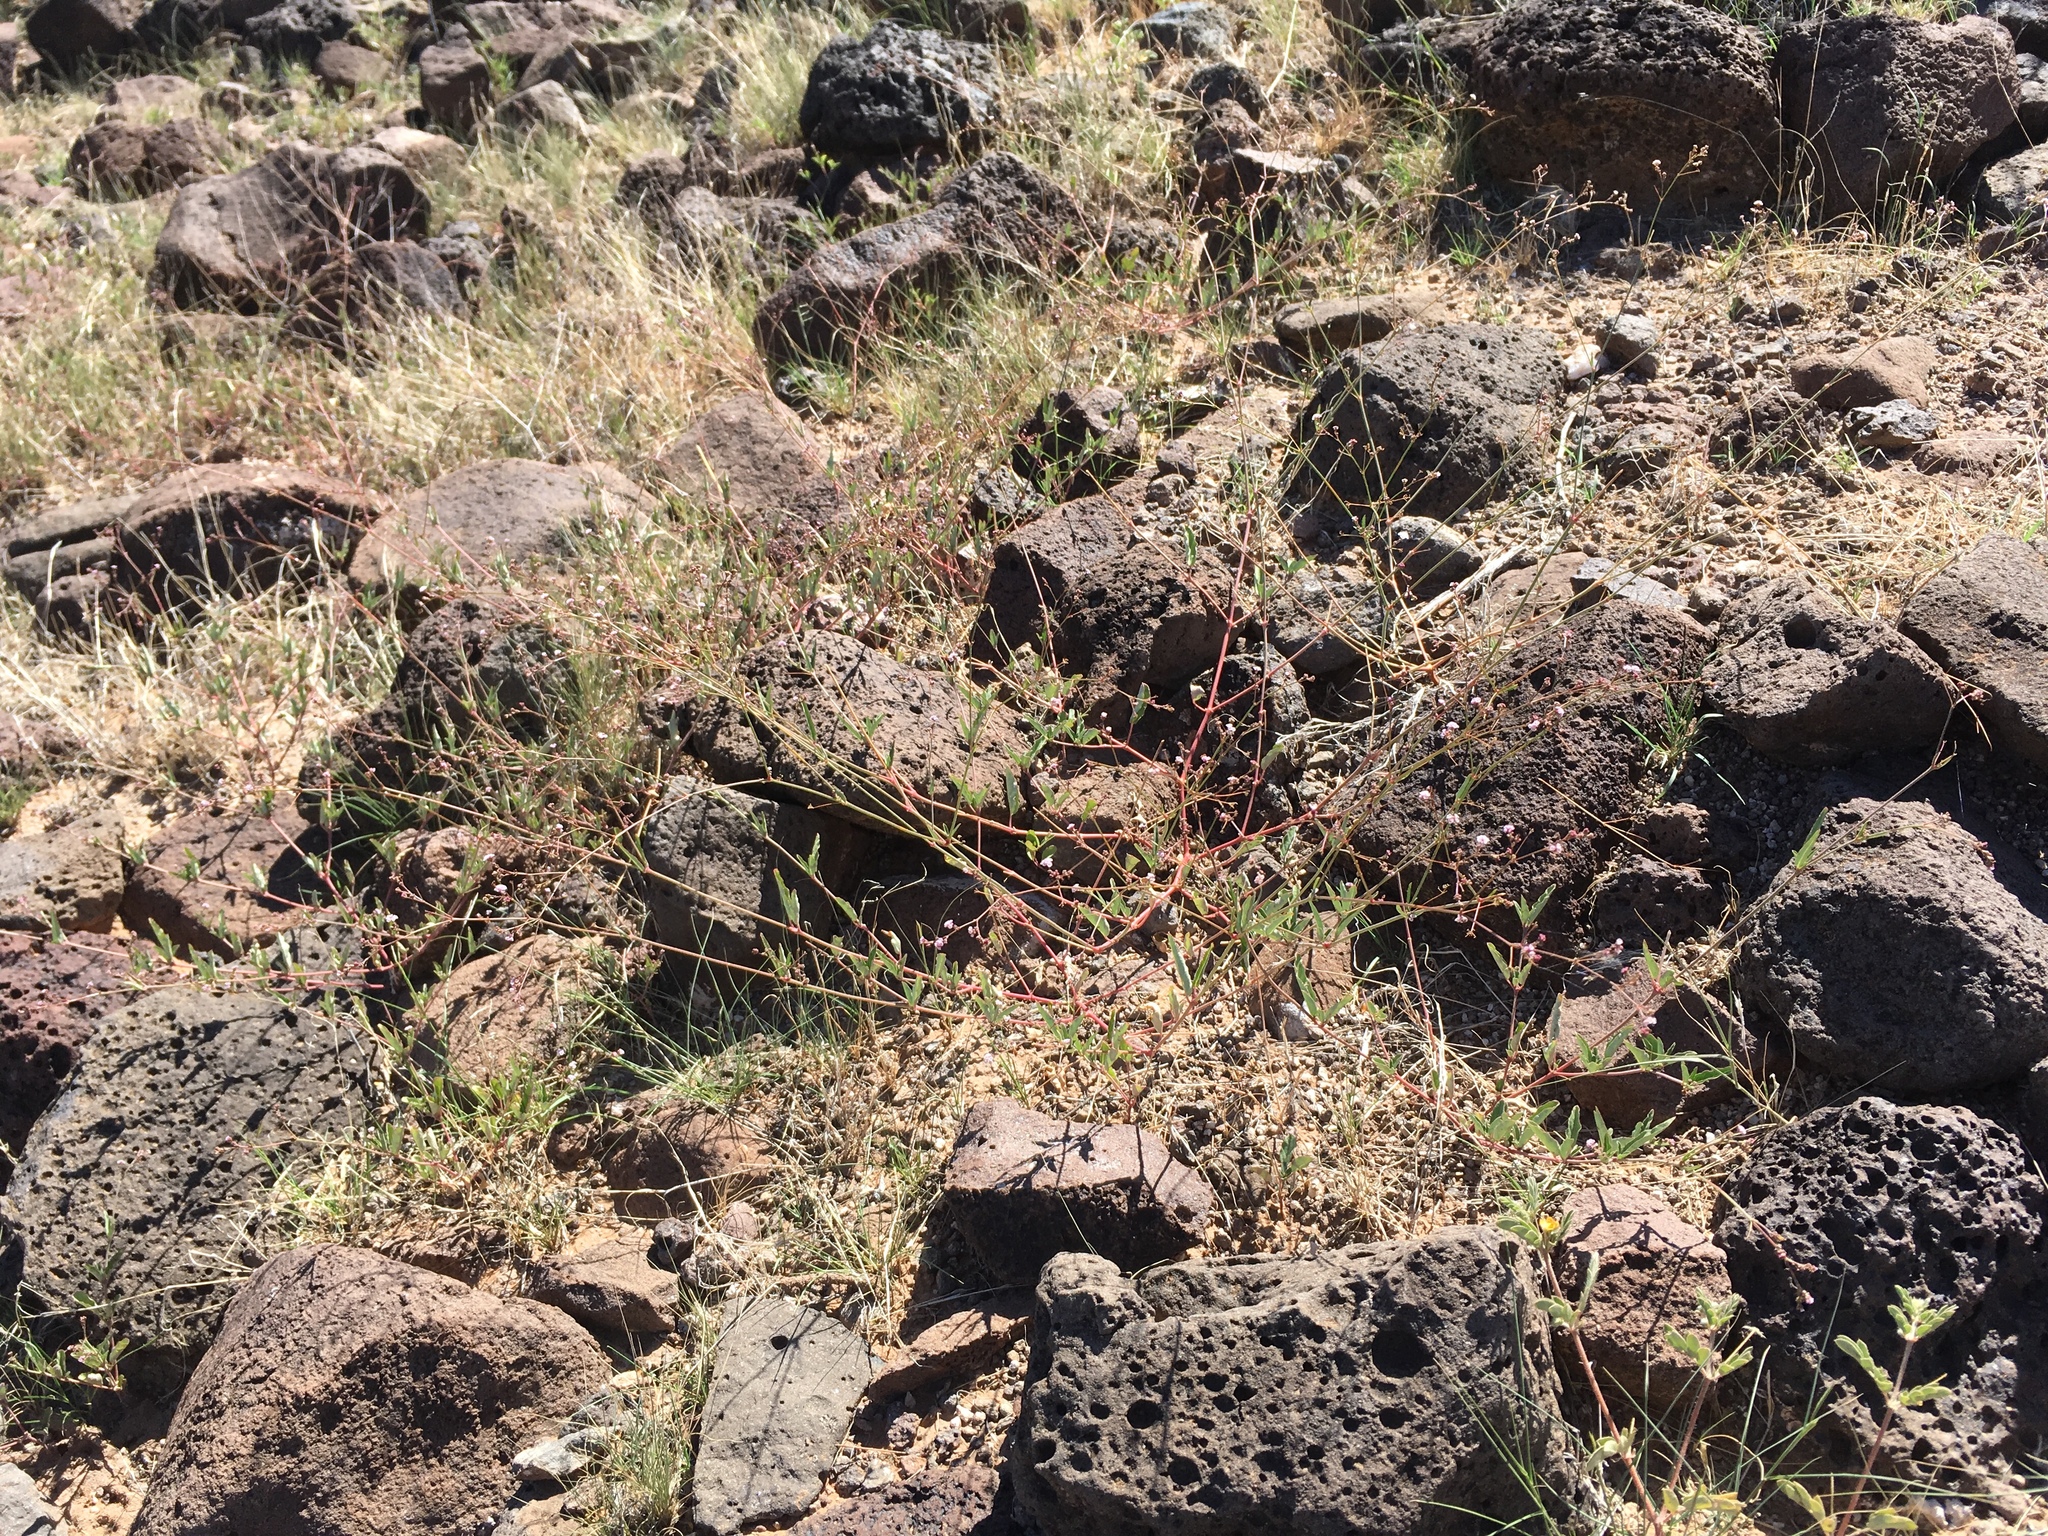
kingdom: Plantae
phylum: Tracheophyta
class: Magnoliopsida
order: Caryophyllales
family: Nyctaginaceae
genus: Boerhavia
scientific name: Boerhavia triquetra
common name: Creeping sticky-stem
